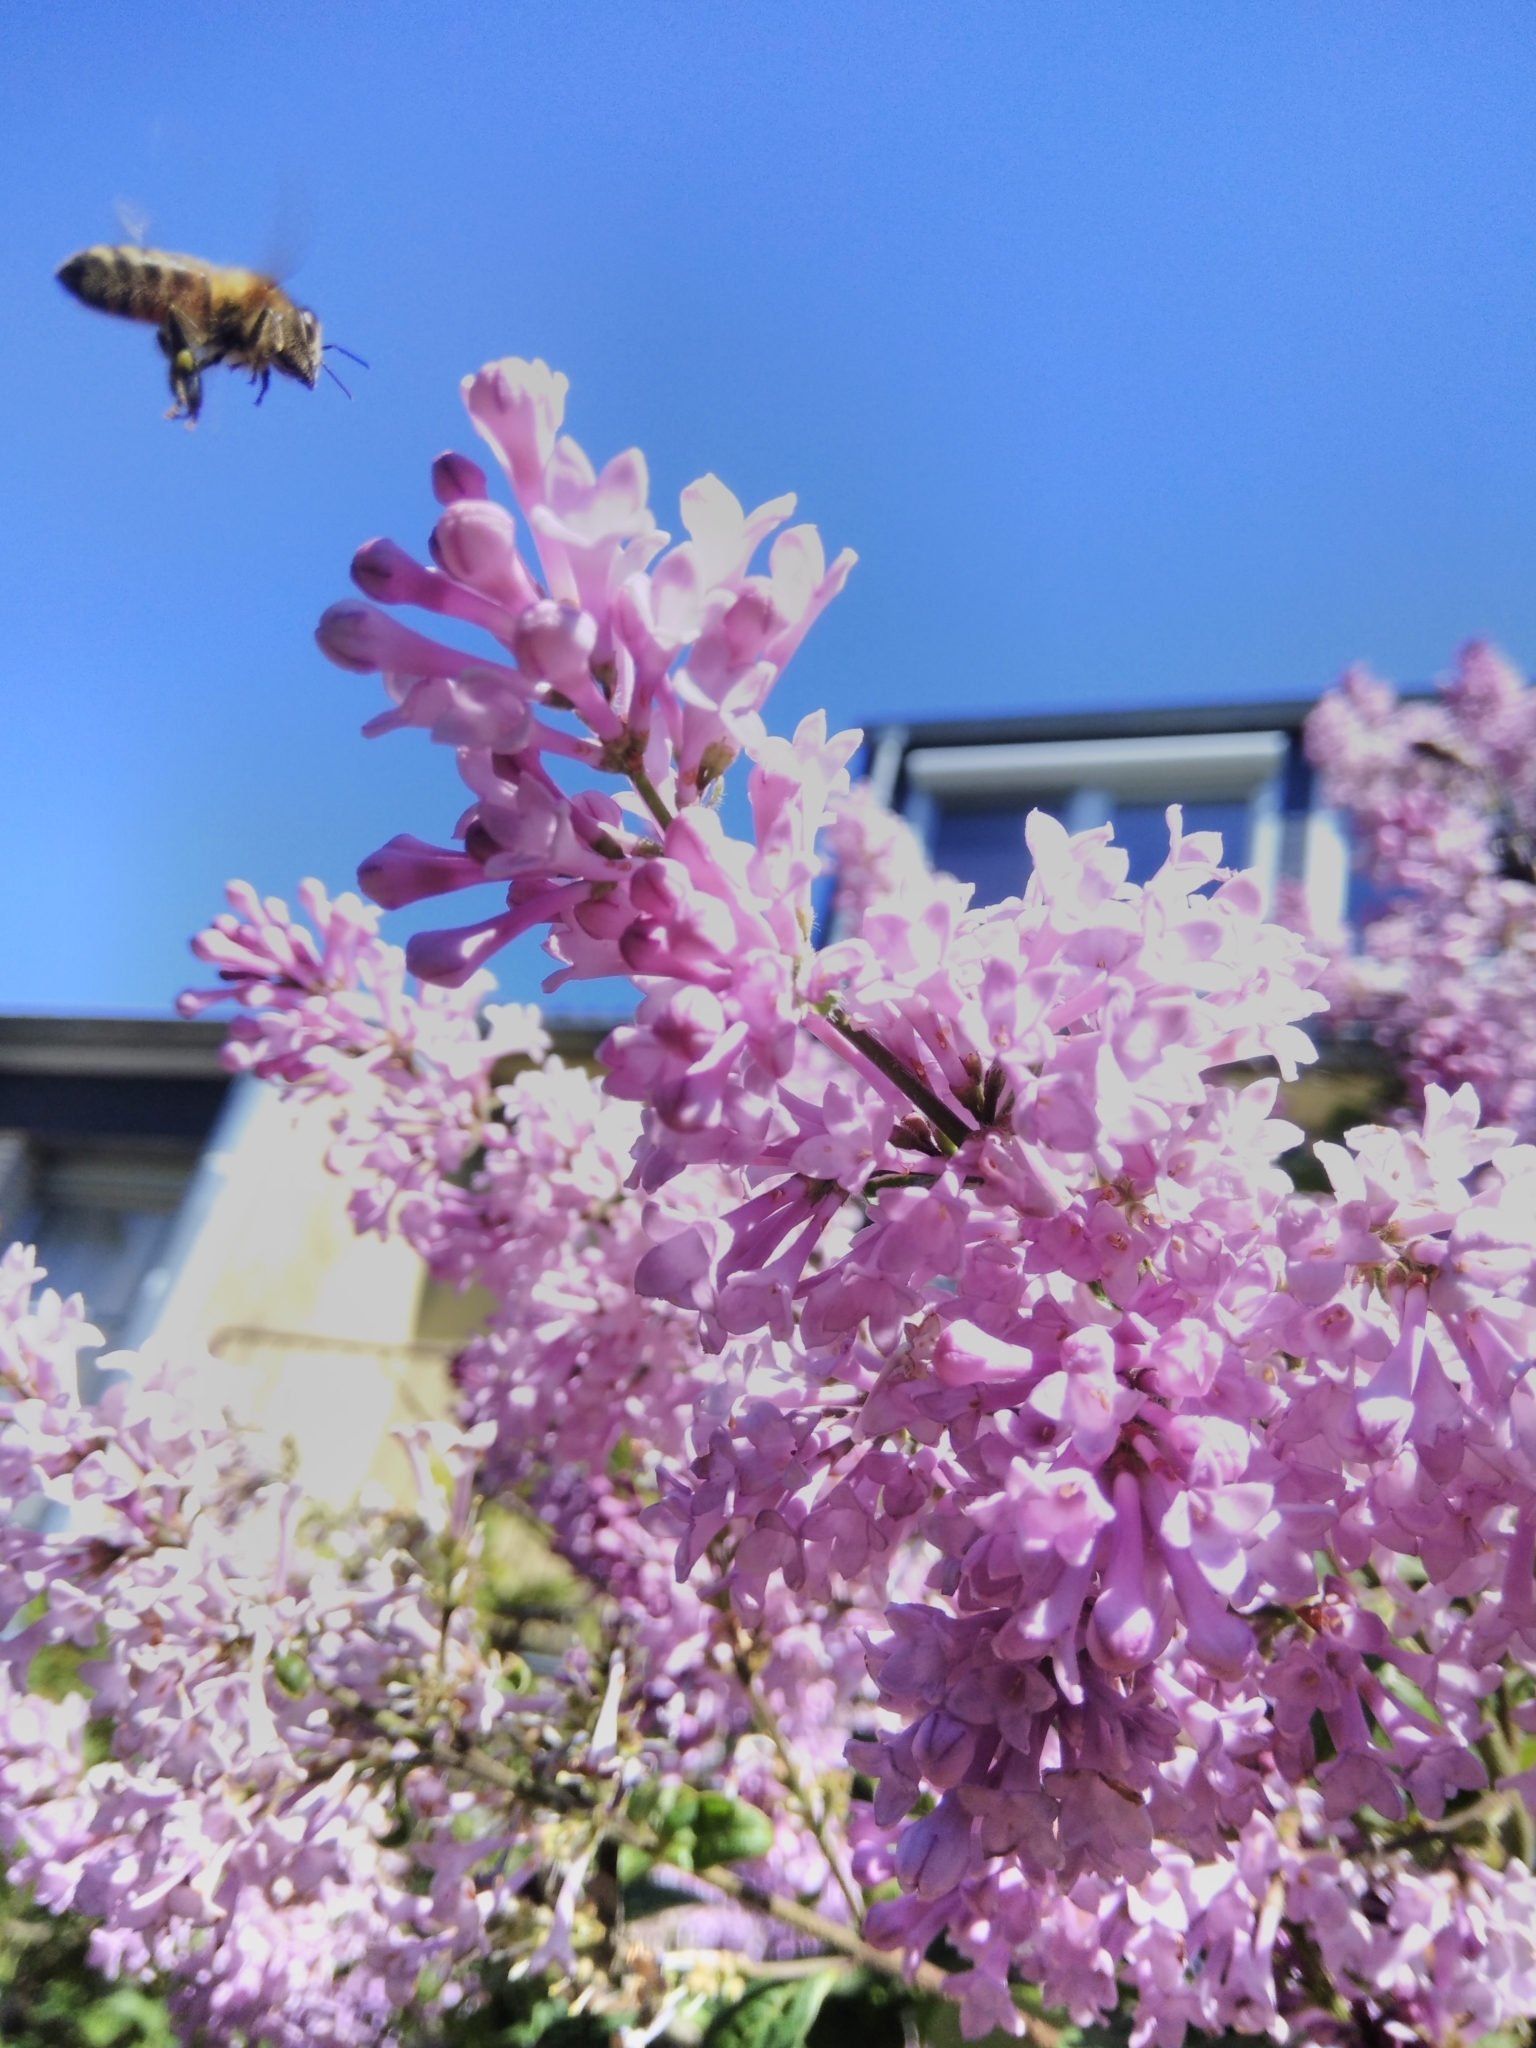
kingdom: Animalia
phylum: Arthropoda
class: Insecta
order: Hymenoptera
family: Apidae
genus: Apis
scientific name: Apis mellifera
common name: Honey bee
